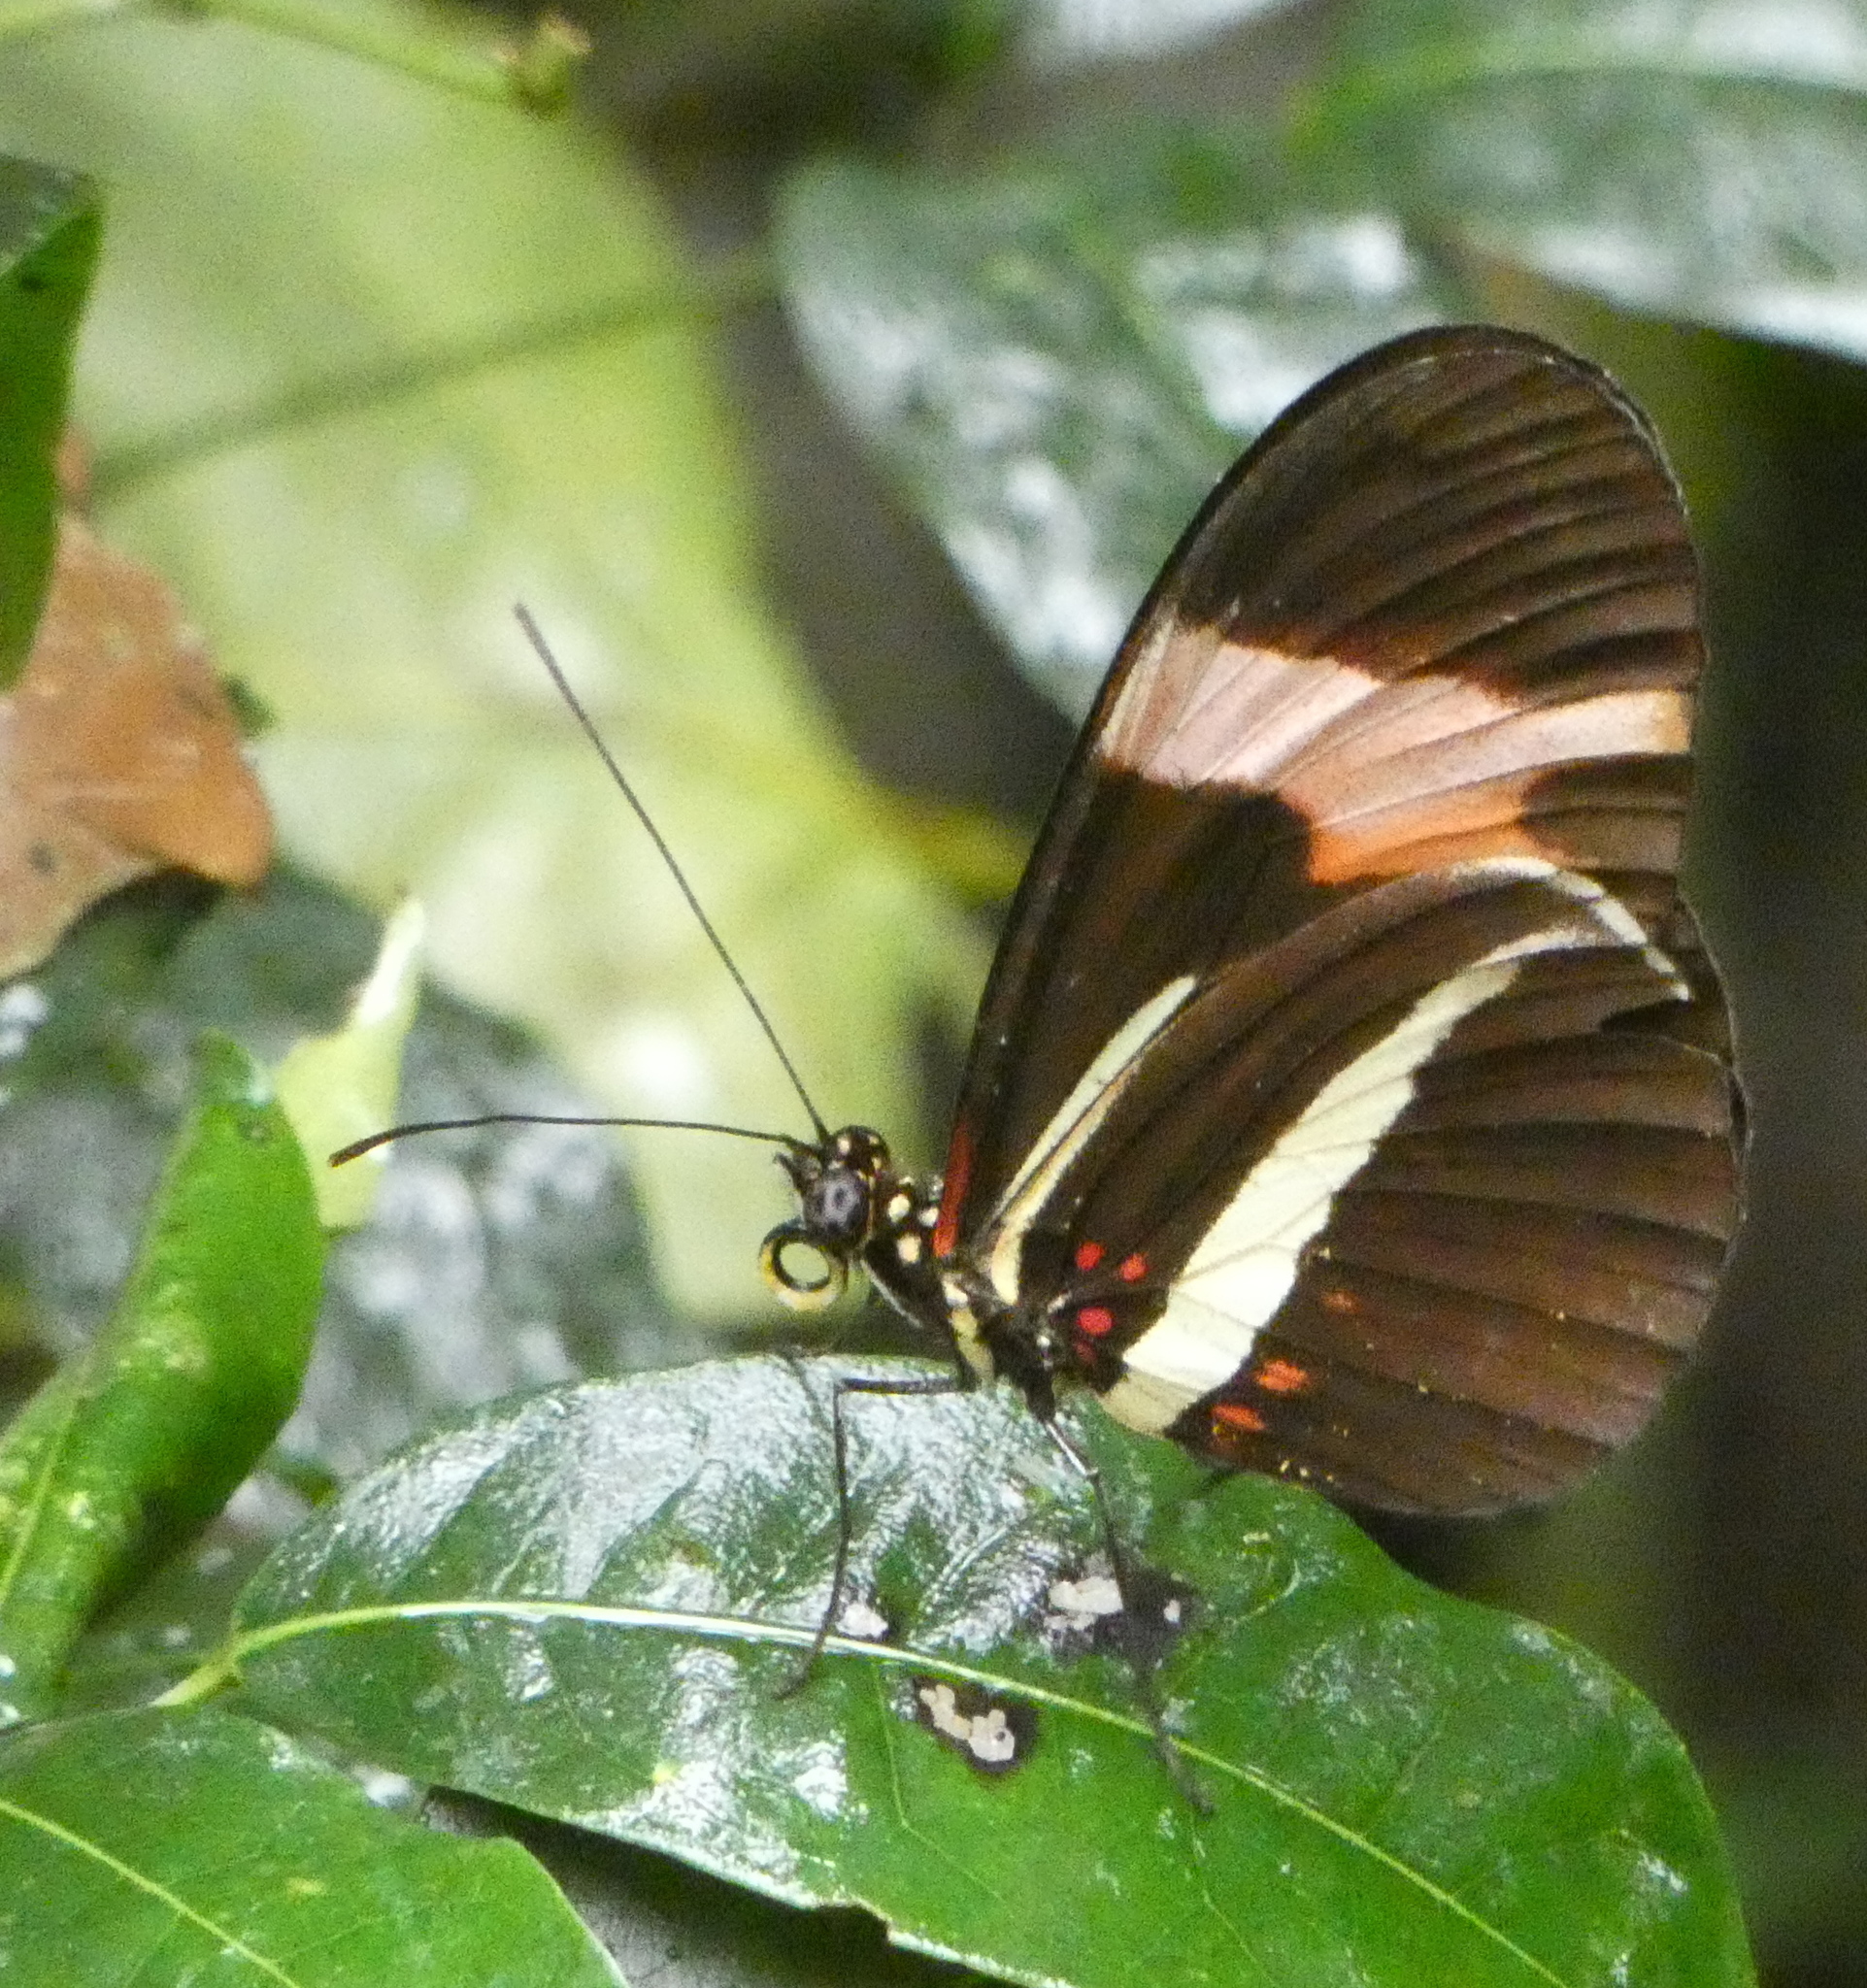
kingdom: Animalia
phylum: Arthropoda
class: Insecta
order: Lepidoptera
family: Nymphalidae
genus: Heliconius
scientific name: Heliconius erato
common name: Common patch longwing
